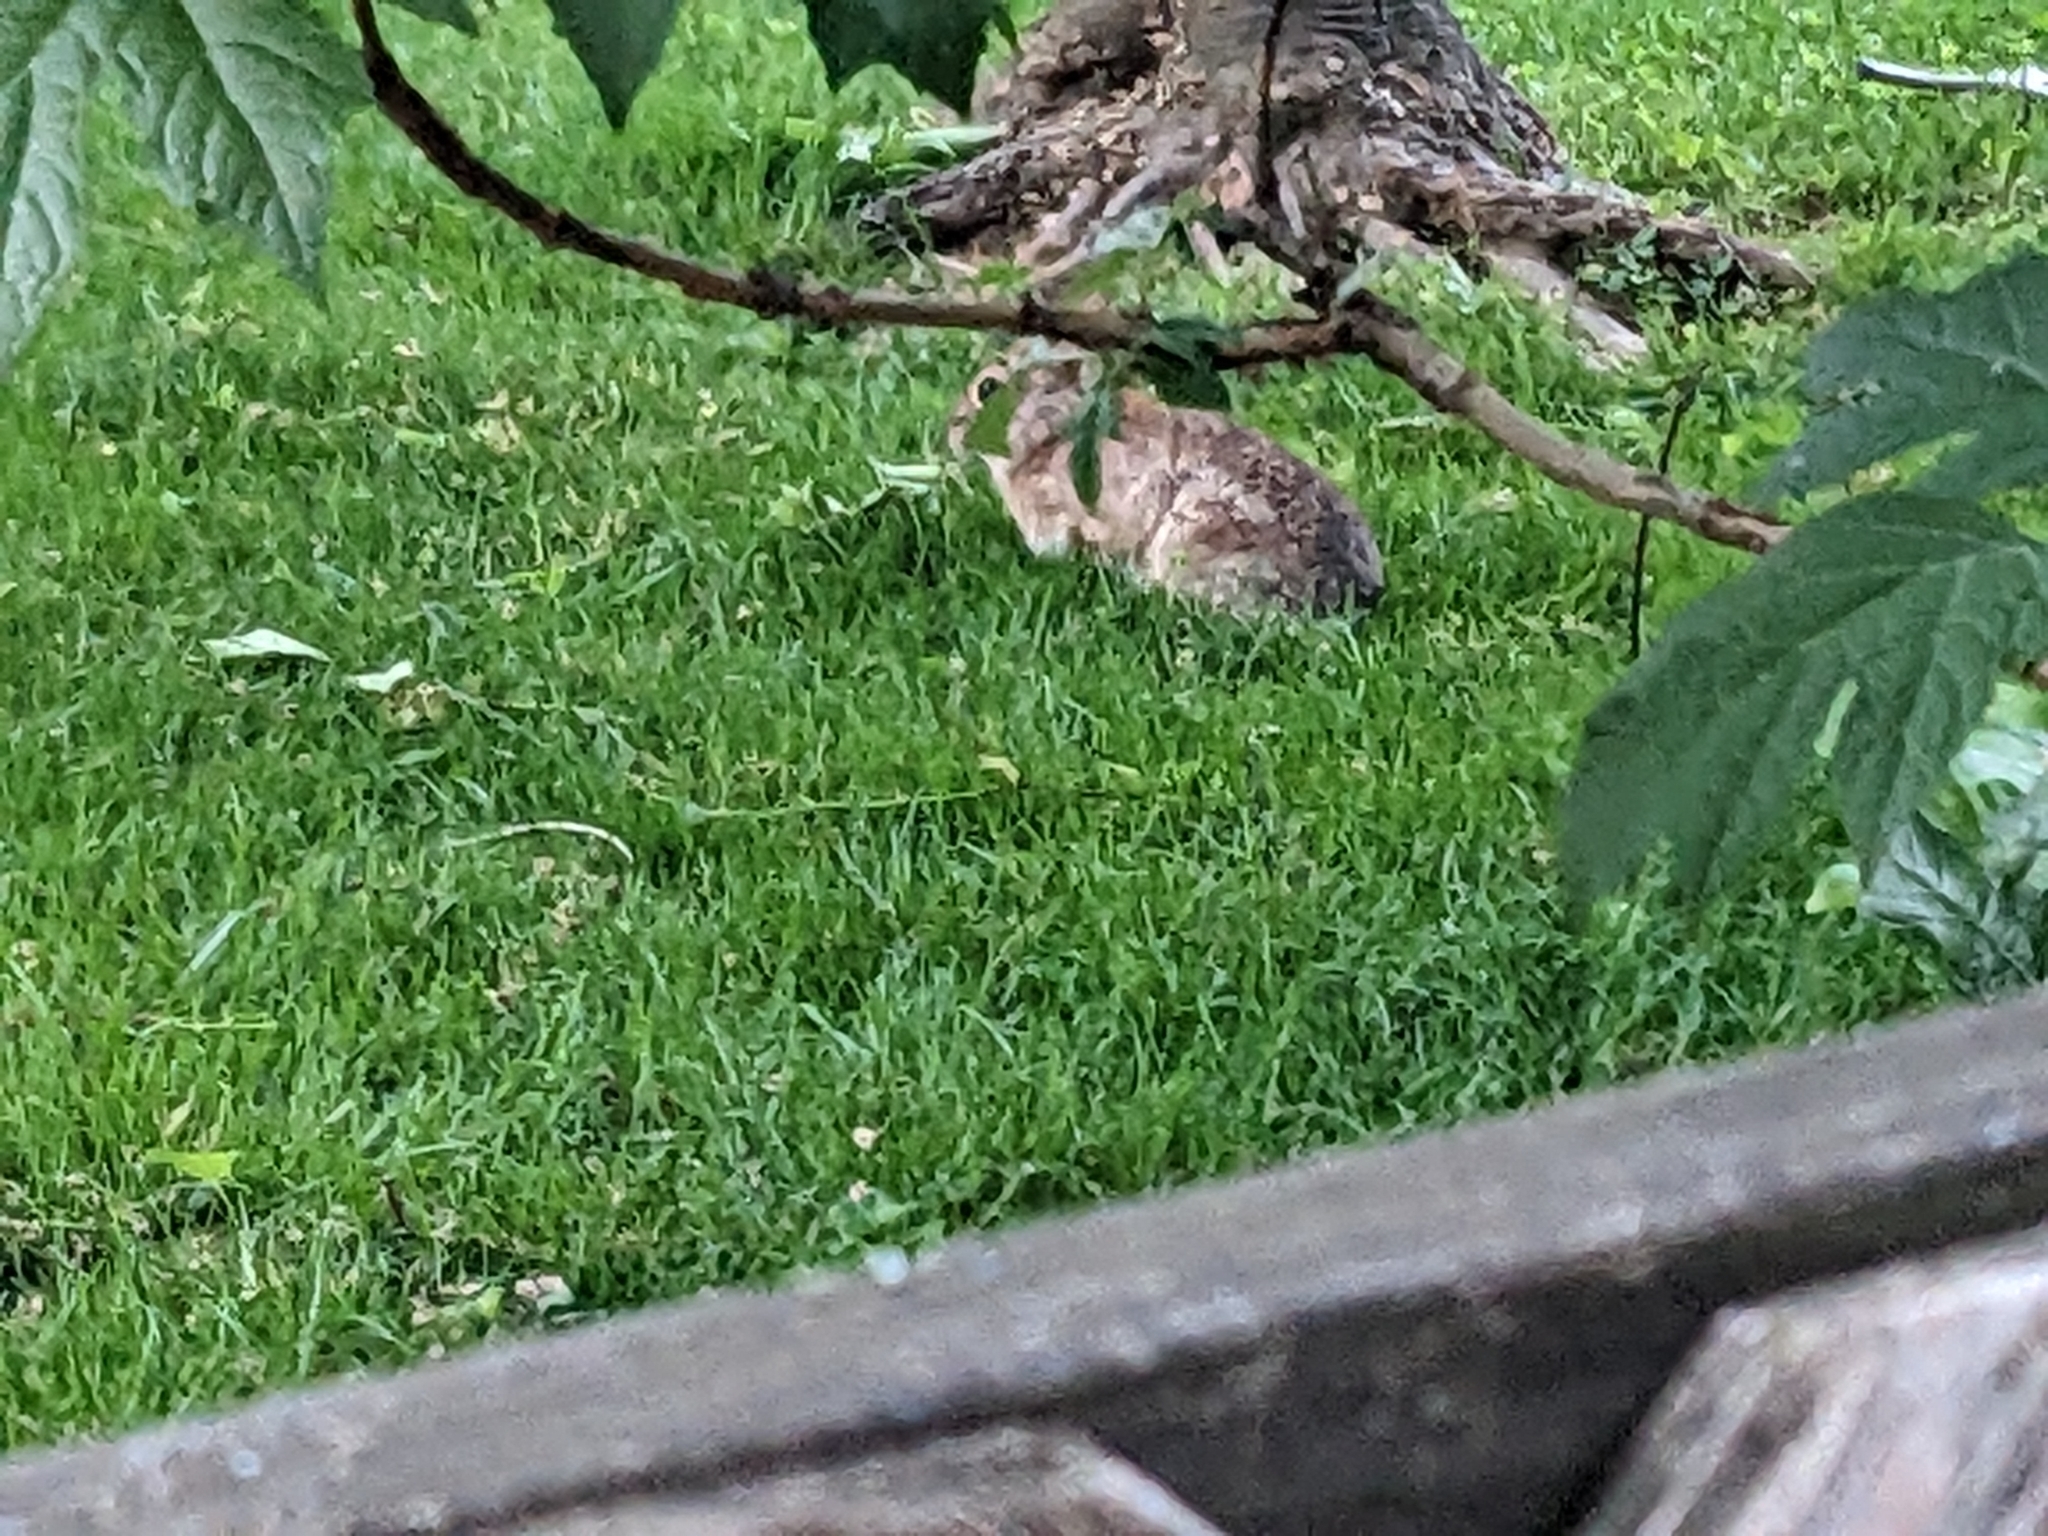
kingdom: Animalia
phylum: Chordata
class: Mammalia
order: Lagomorpha
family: Leporidae
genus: Sylvilagus
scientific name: Sylvilagus floridanus
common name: Eastern cottontail
